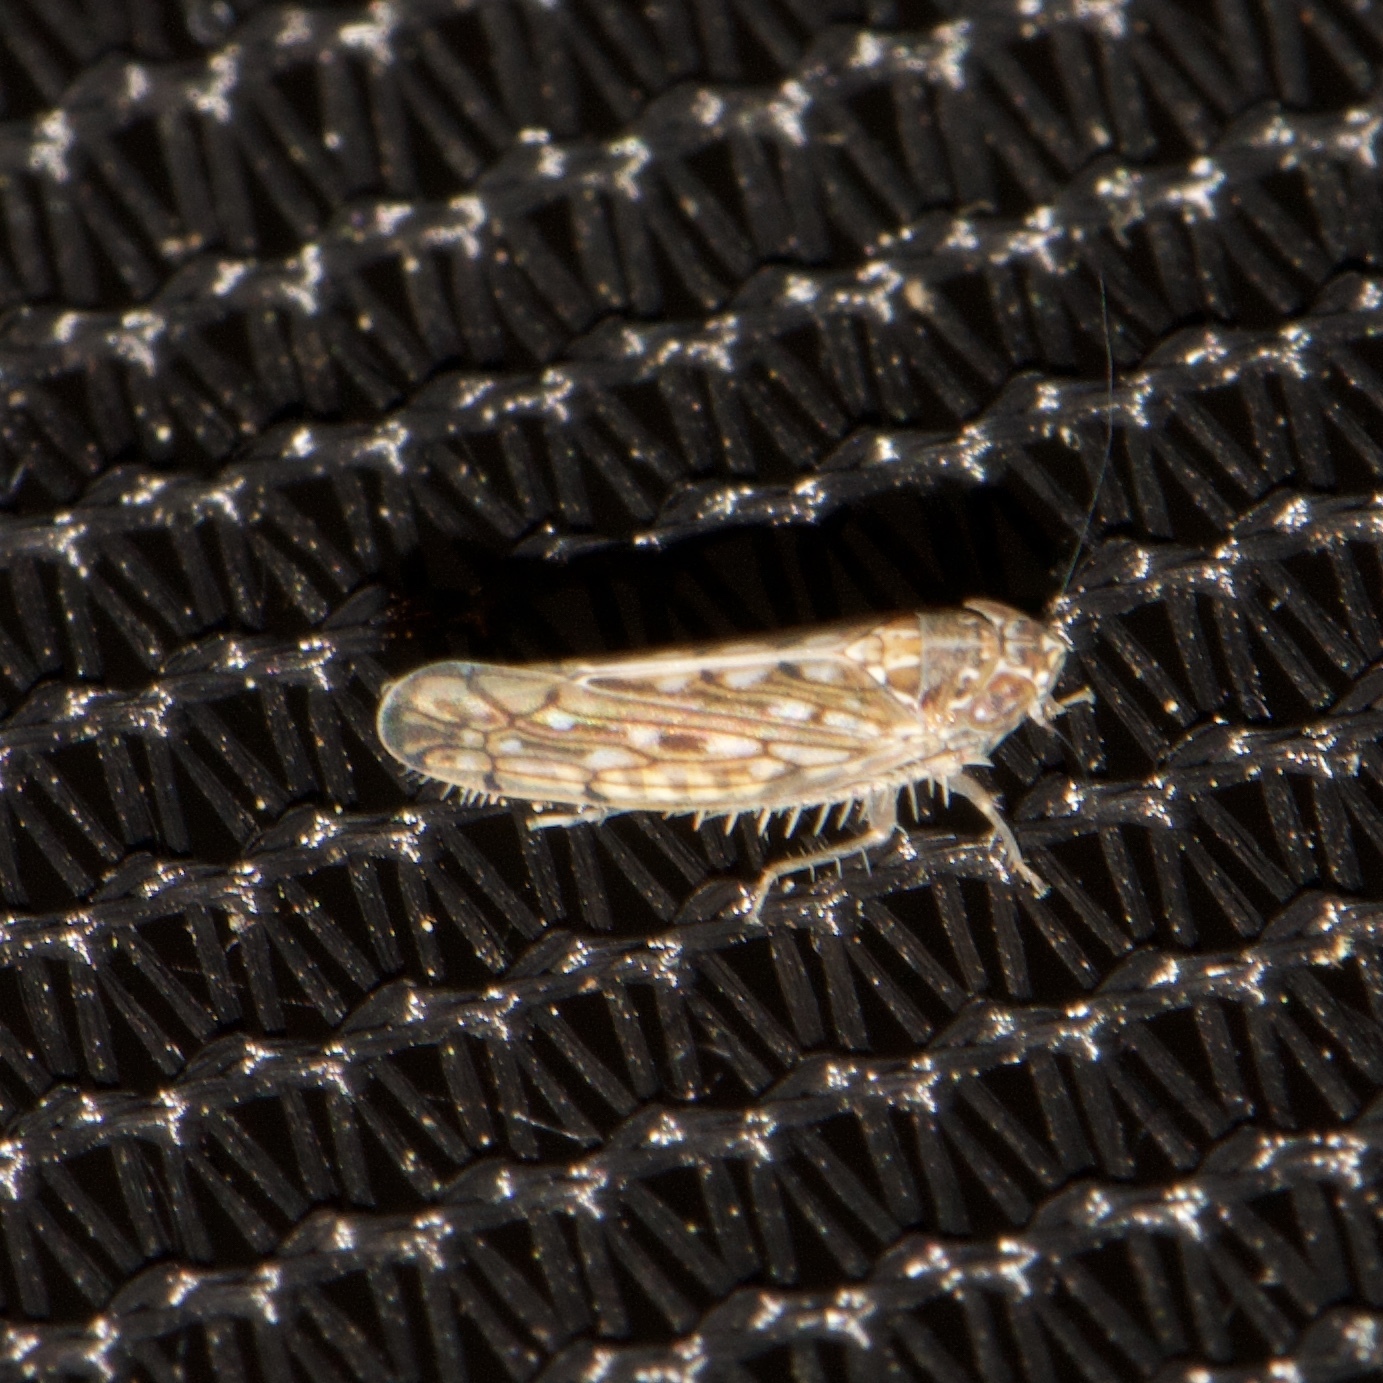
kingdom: Animalia
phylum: Arthropoda
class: Insecta
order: Hemiptera
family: Cicadellidae
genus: Osbornellus
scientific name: Osbornellus clarus
